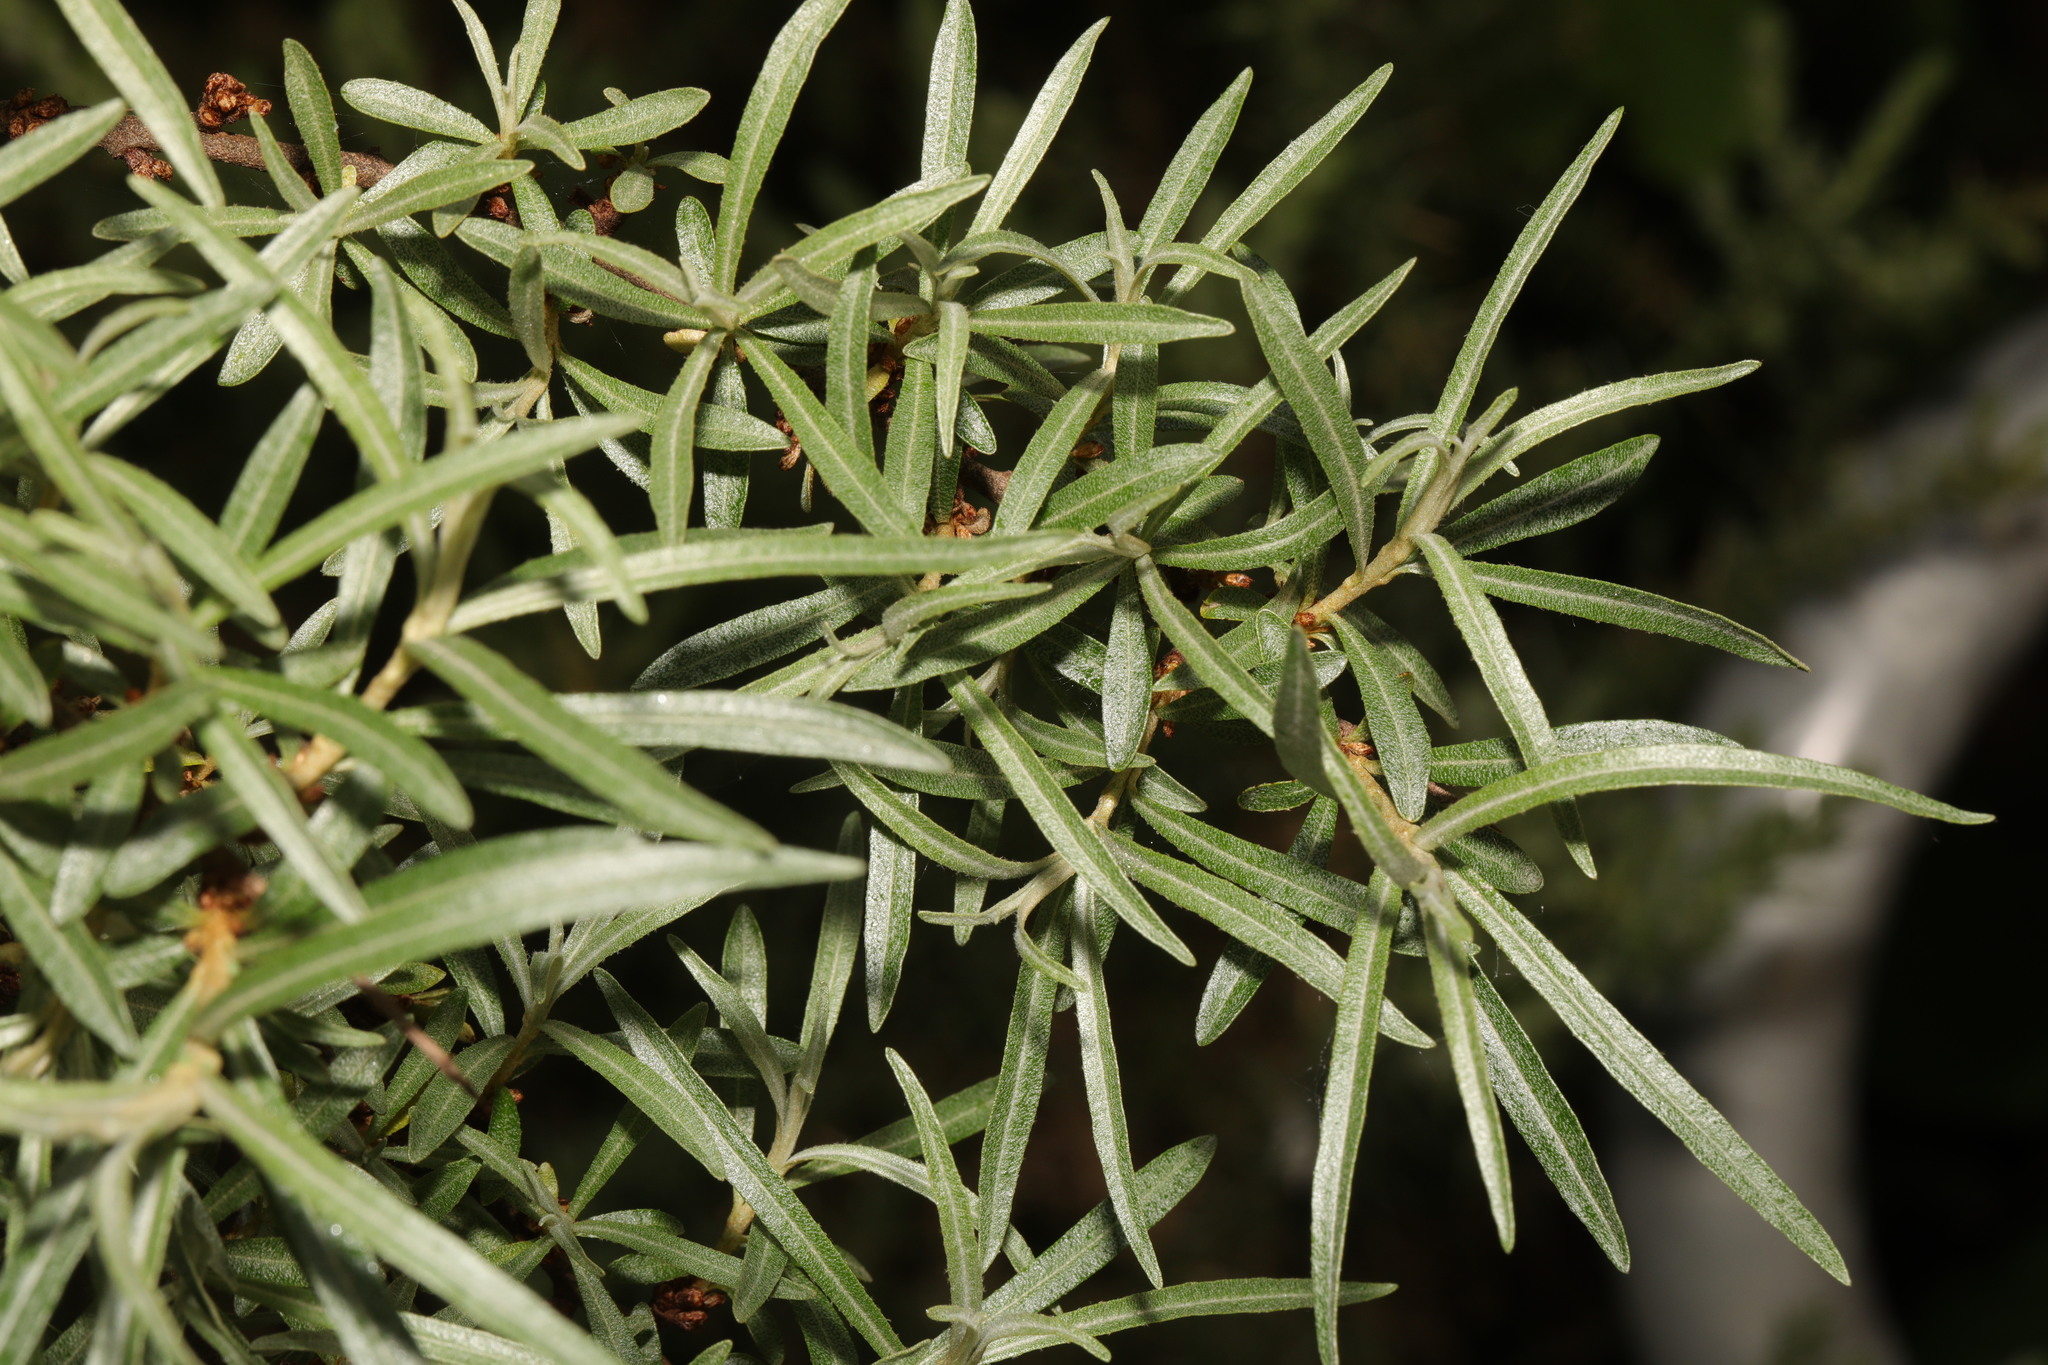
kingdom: Plantae
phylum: Tracheophyta
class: Magnoliopsida
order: Rosales
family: Elaeagnaceae
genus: Hippophae
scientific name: Hippophae rhamnoides
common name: Sea-buckthorn
